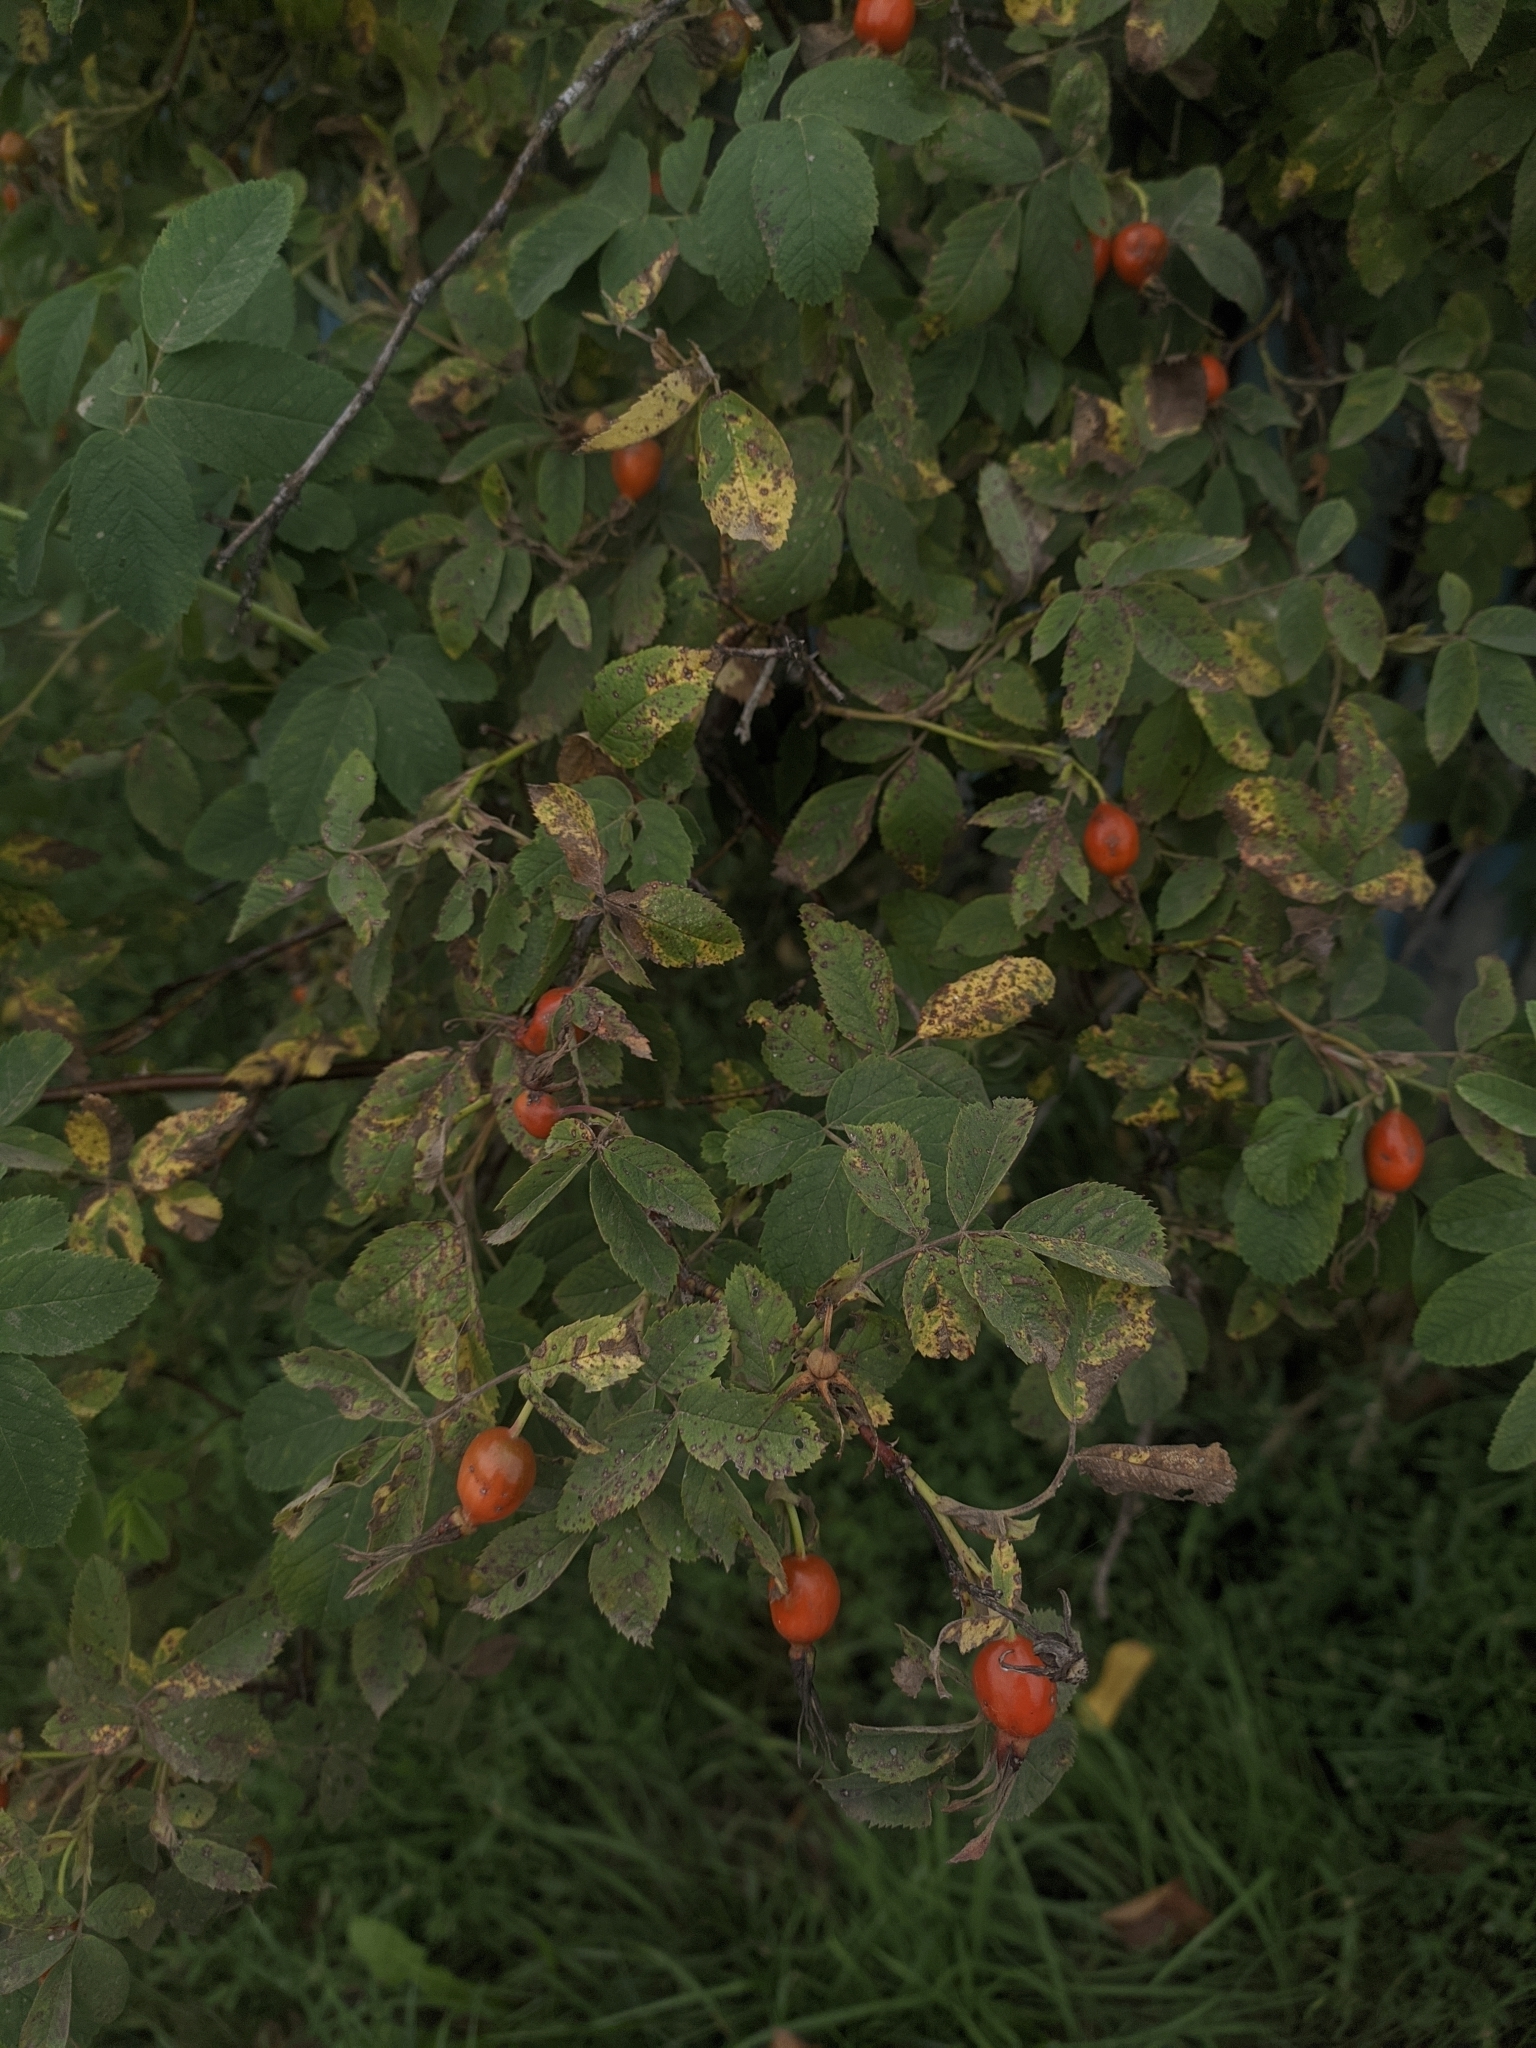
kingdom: Plantae
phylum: Tracheophyta
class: Magnoliopsida
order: Rosales
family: Rosaceae
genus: Rosa
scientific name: Rosa
